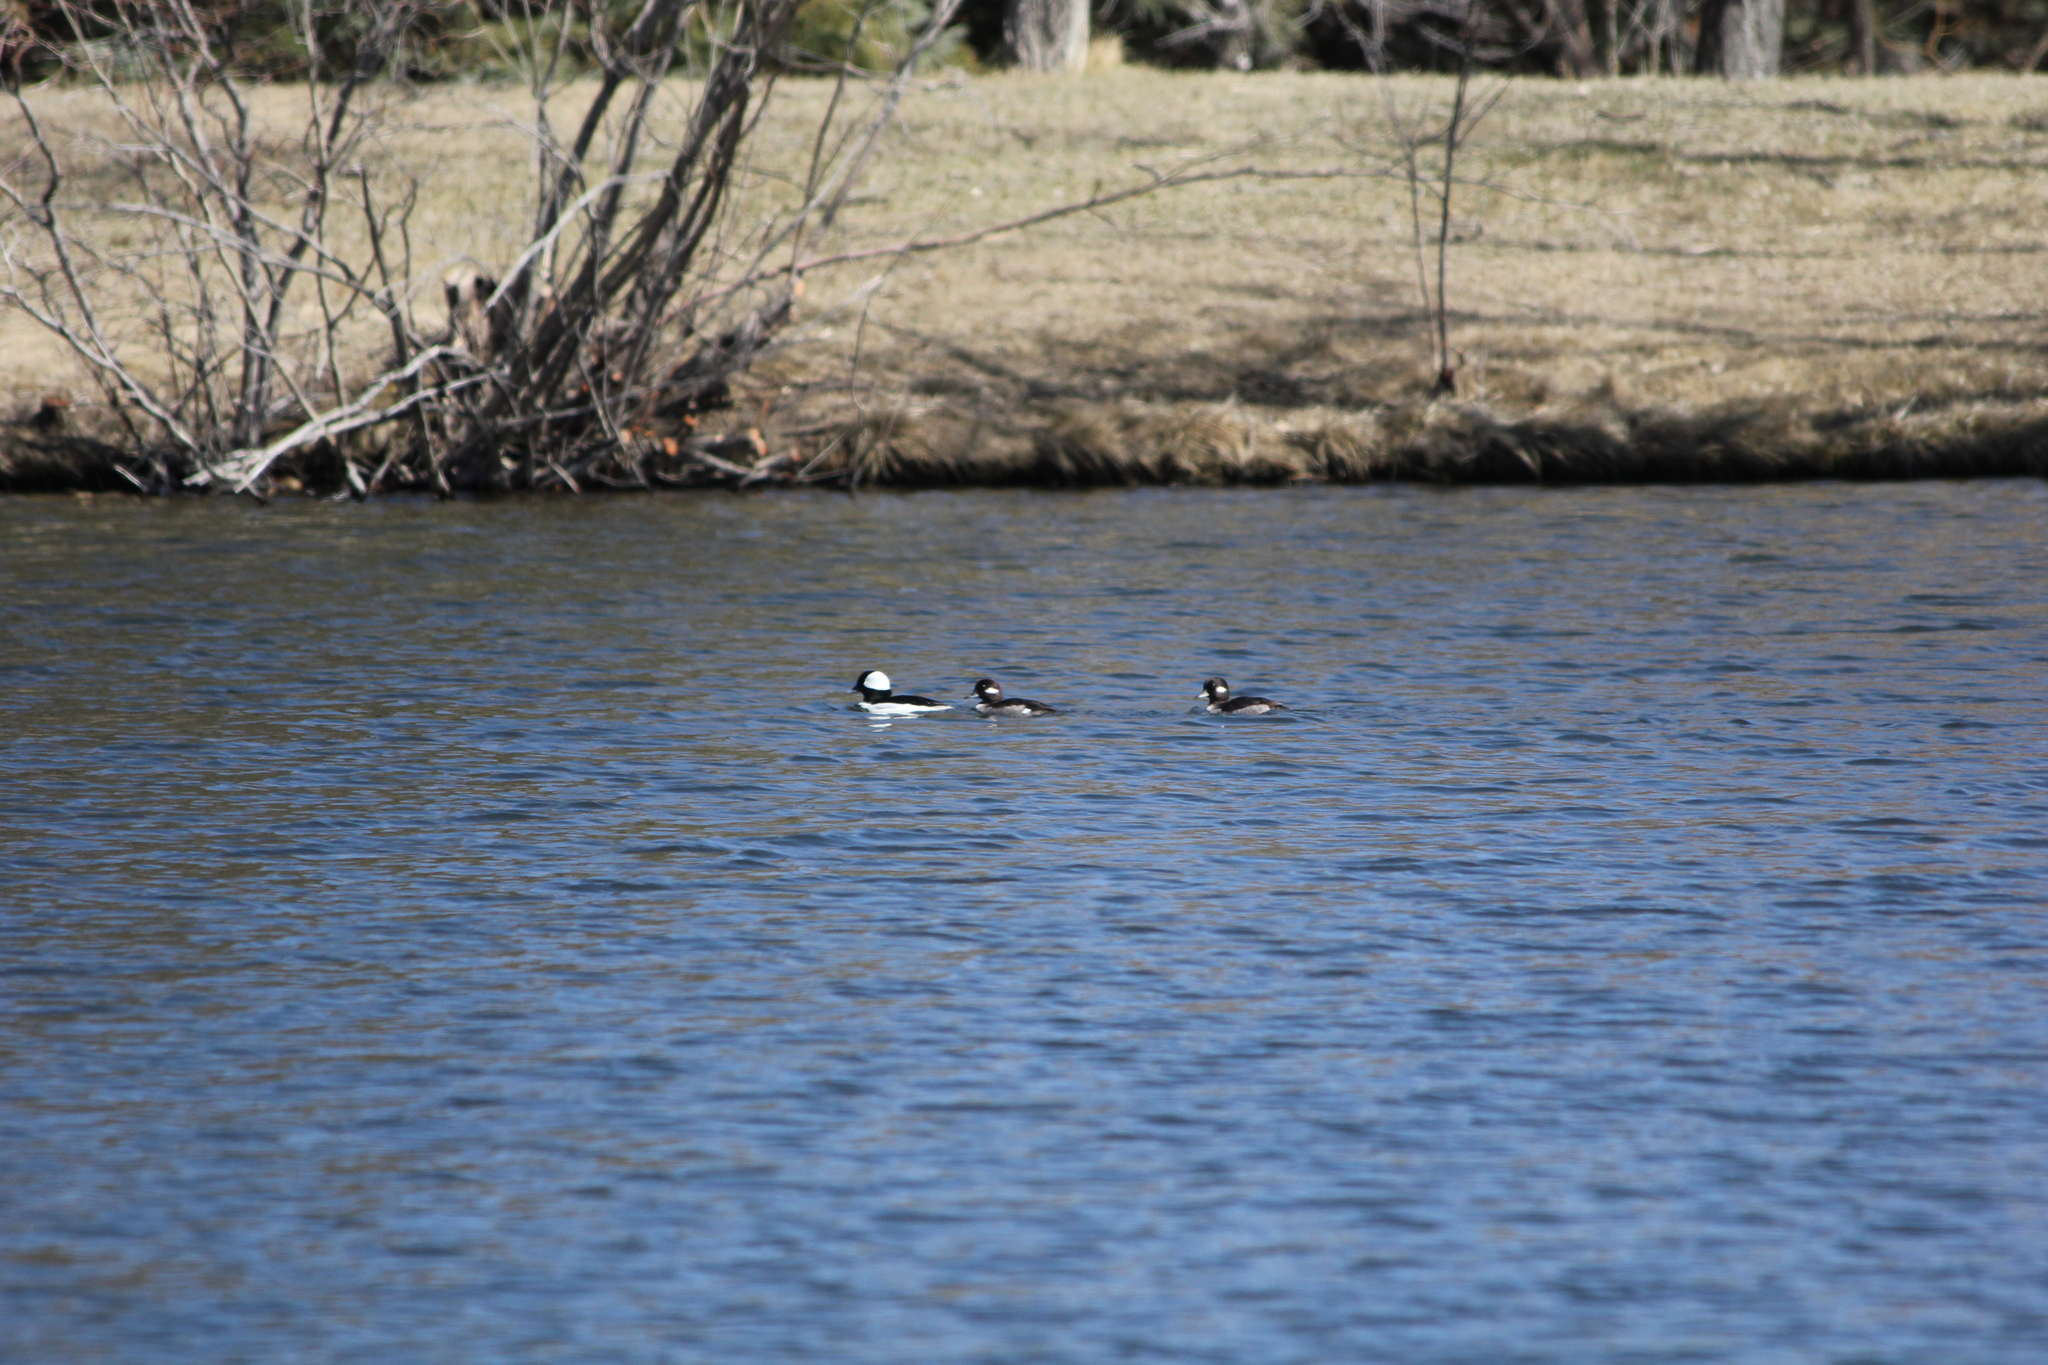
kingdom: Animalia
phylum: Chordata
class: Aves
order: Anseriformes
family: Anatidae
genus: Bucephala
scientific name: Bucephala albeola
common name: Bufflehead
